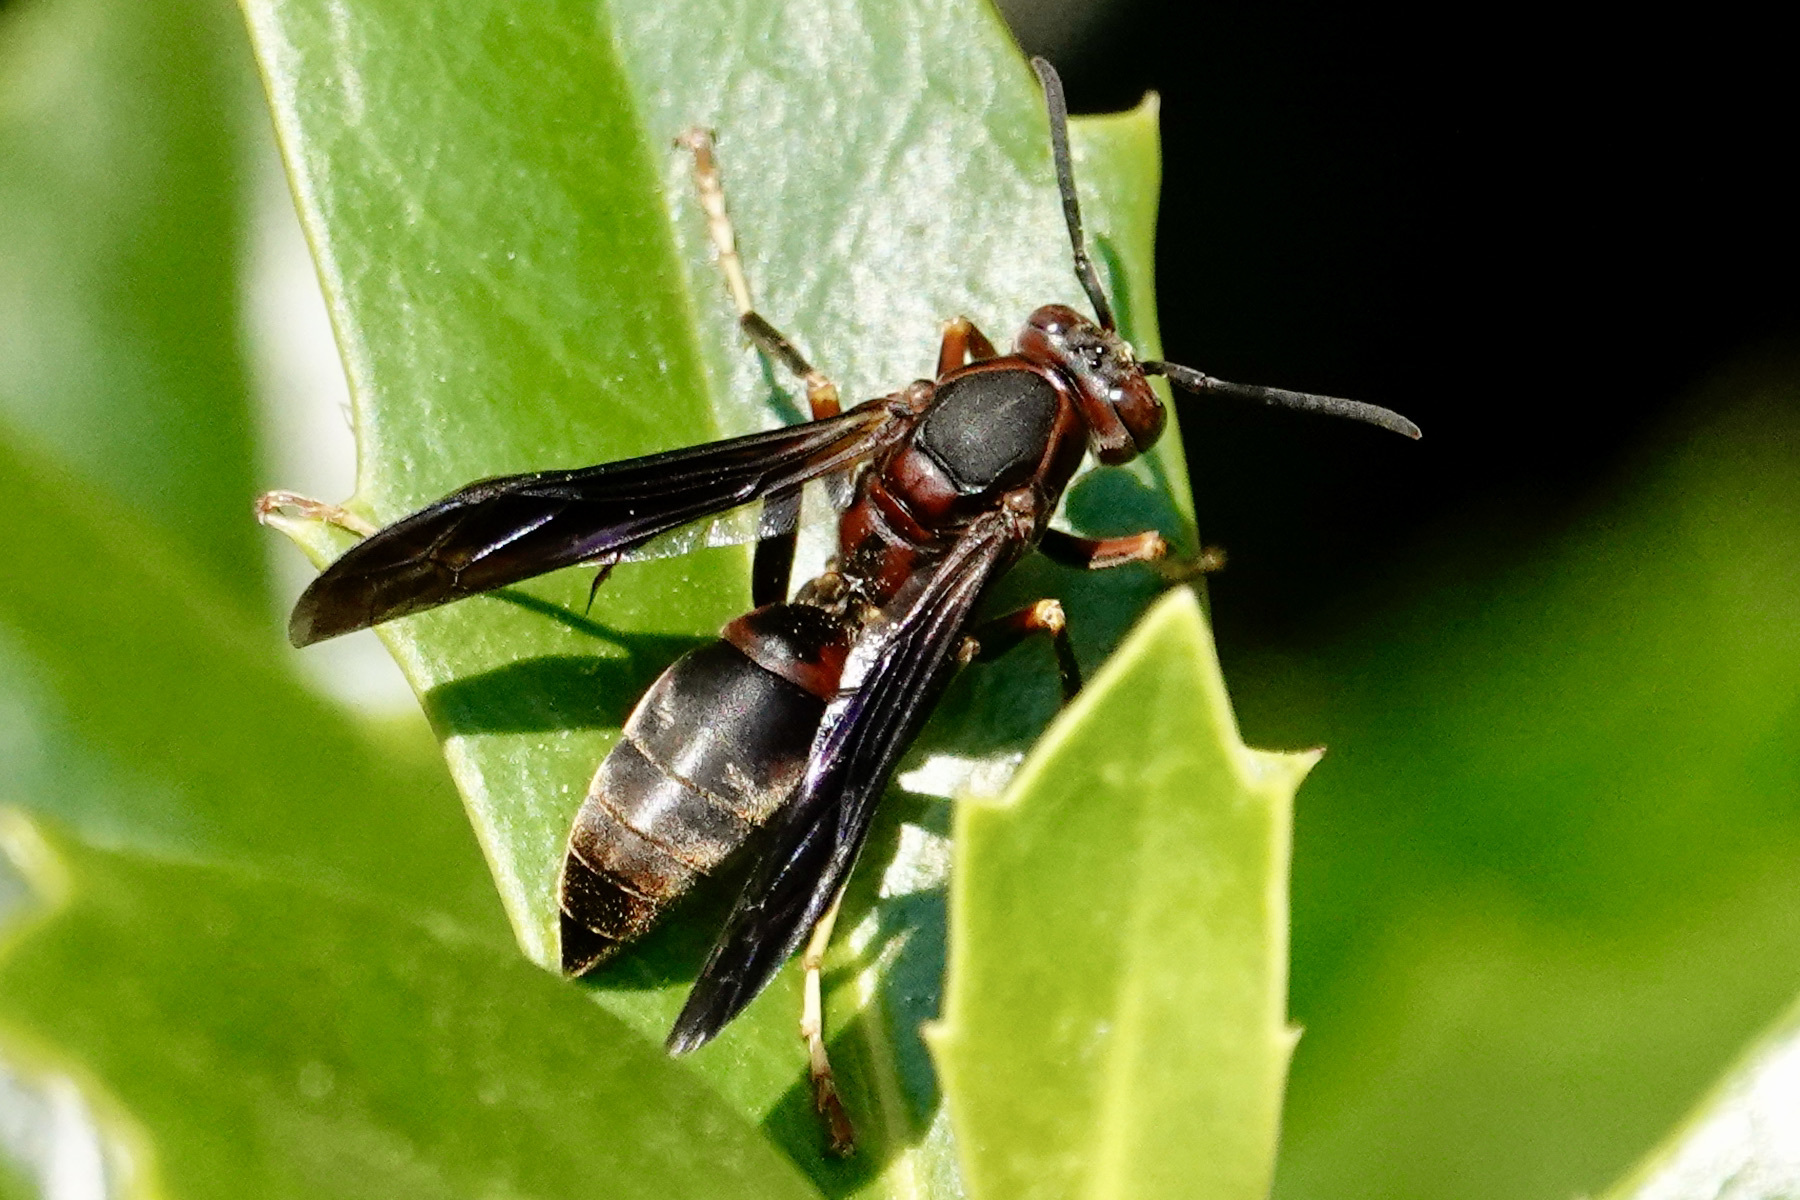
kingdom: Animalia
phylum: Arthropoda
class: Insecta
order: Hymenoptera
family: Eumenidae
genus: Polistes
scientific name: Polistes metricus
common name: Metric paper wasp
